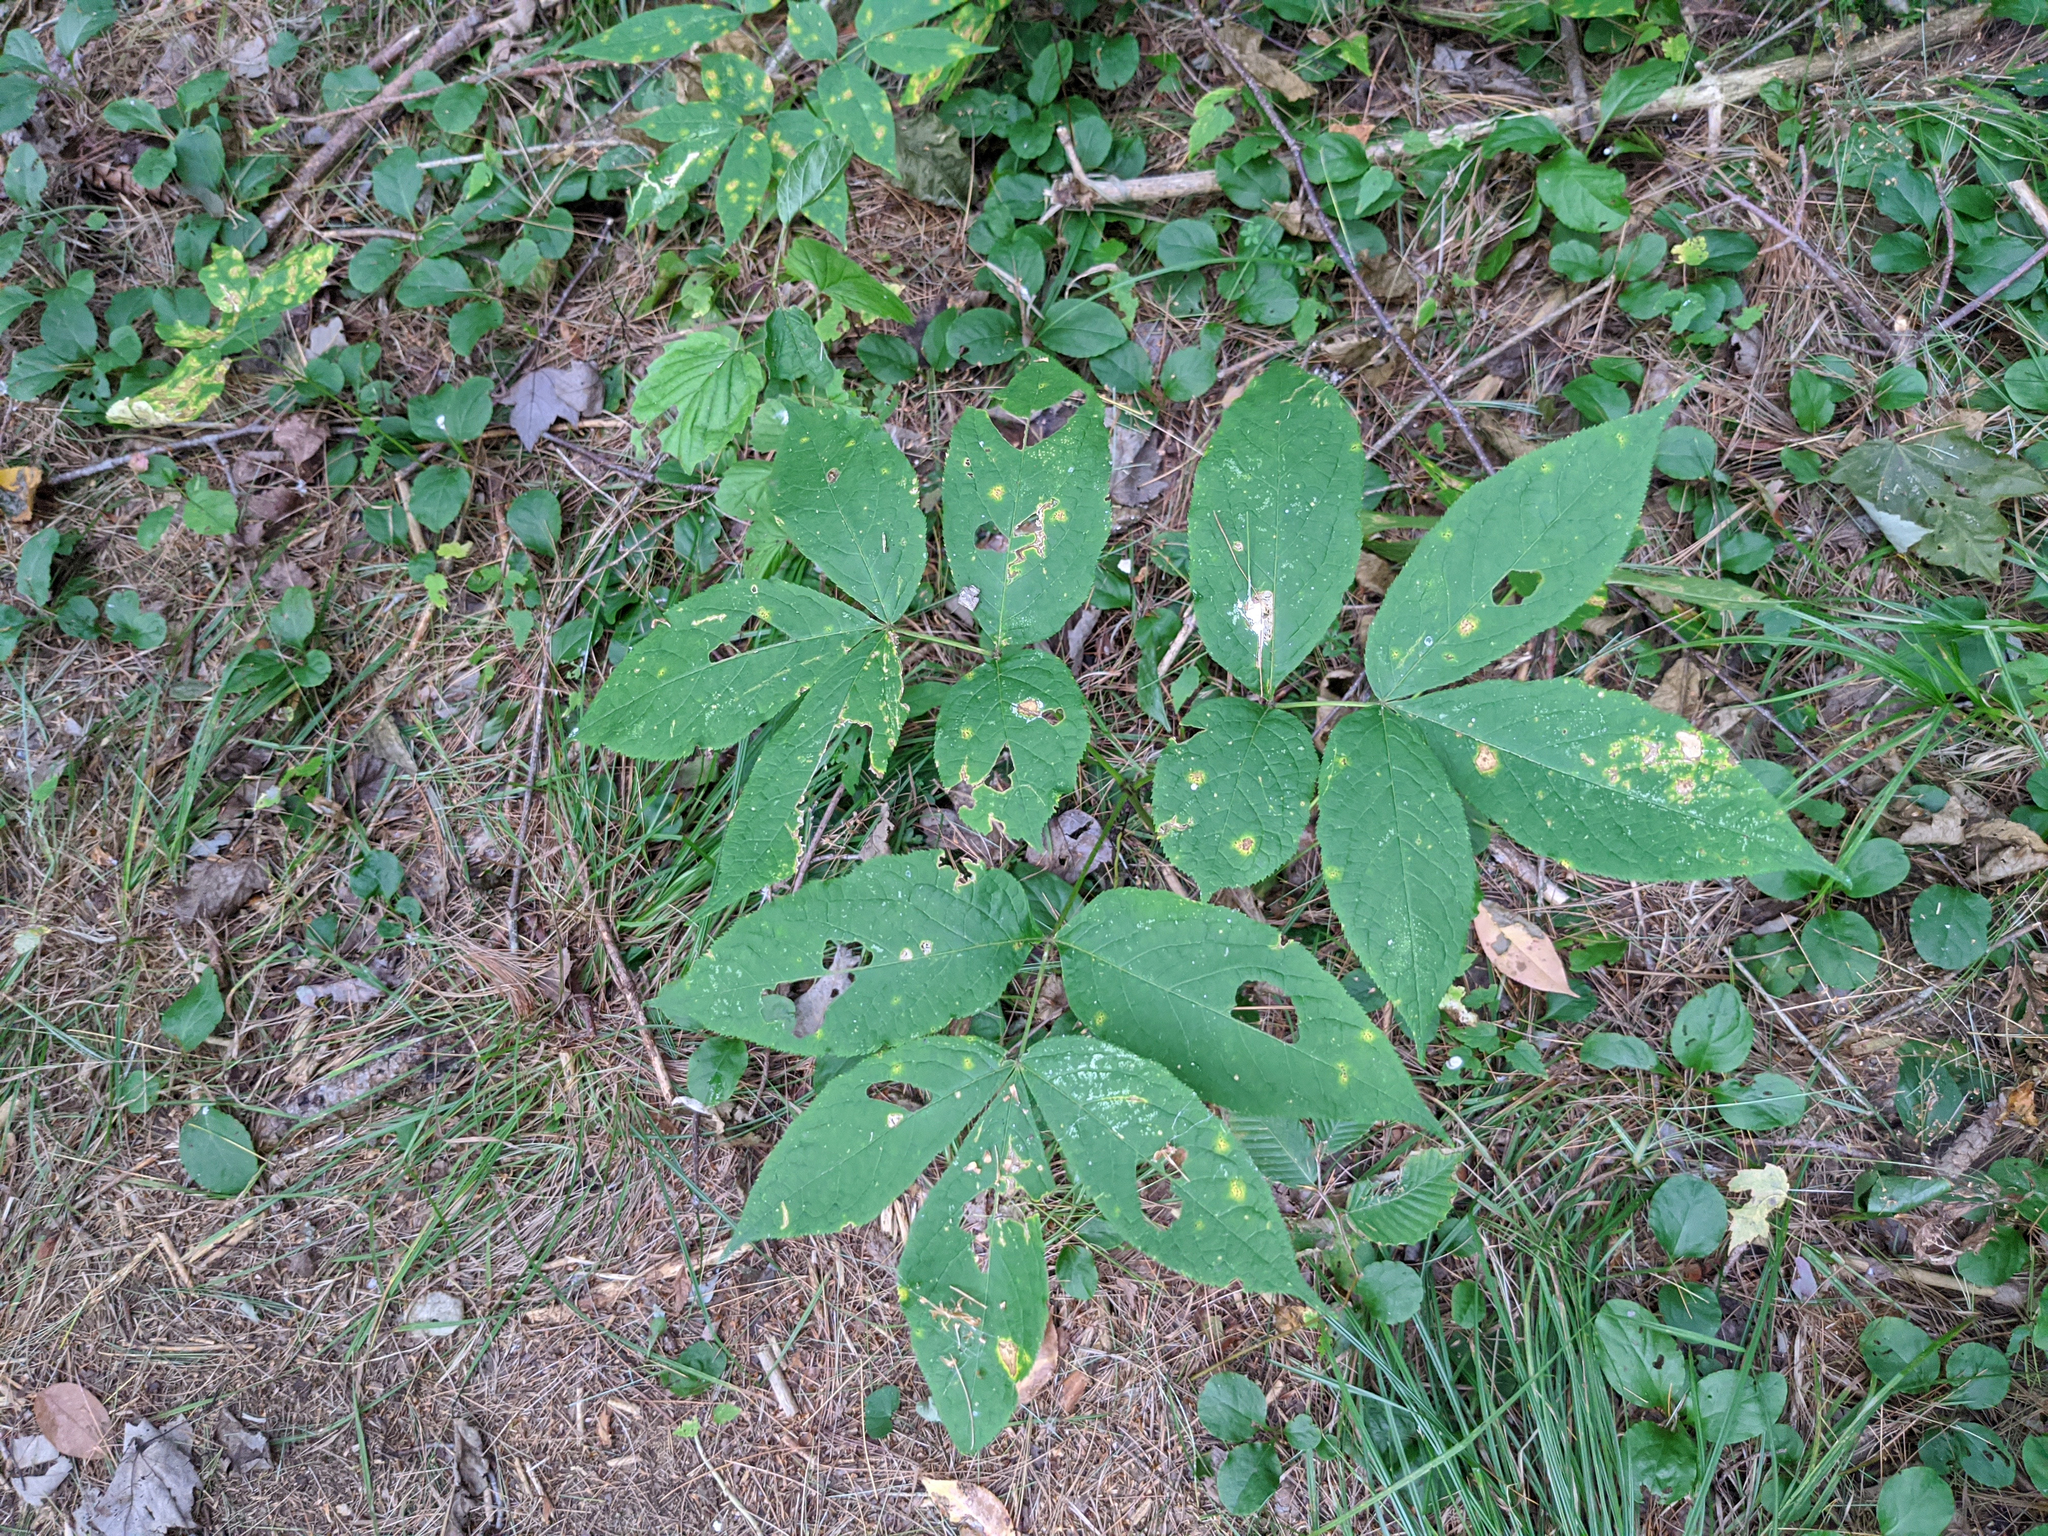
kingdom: Plantae
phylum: Tracheophyta
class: Magnoliopsida
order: Apiales
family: Araliaceae
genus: Aralia
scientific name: Aralia nudicaulis
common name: Wild sarsaparilla
